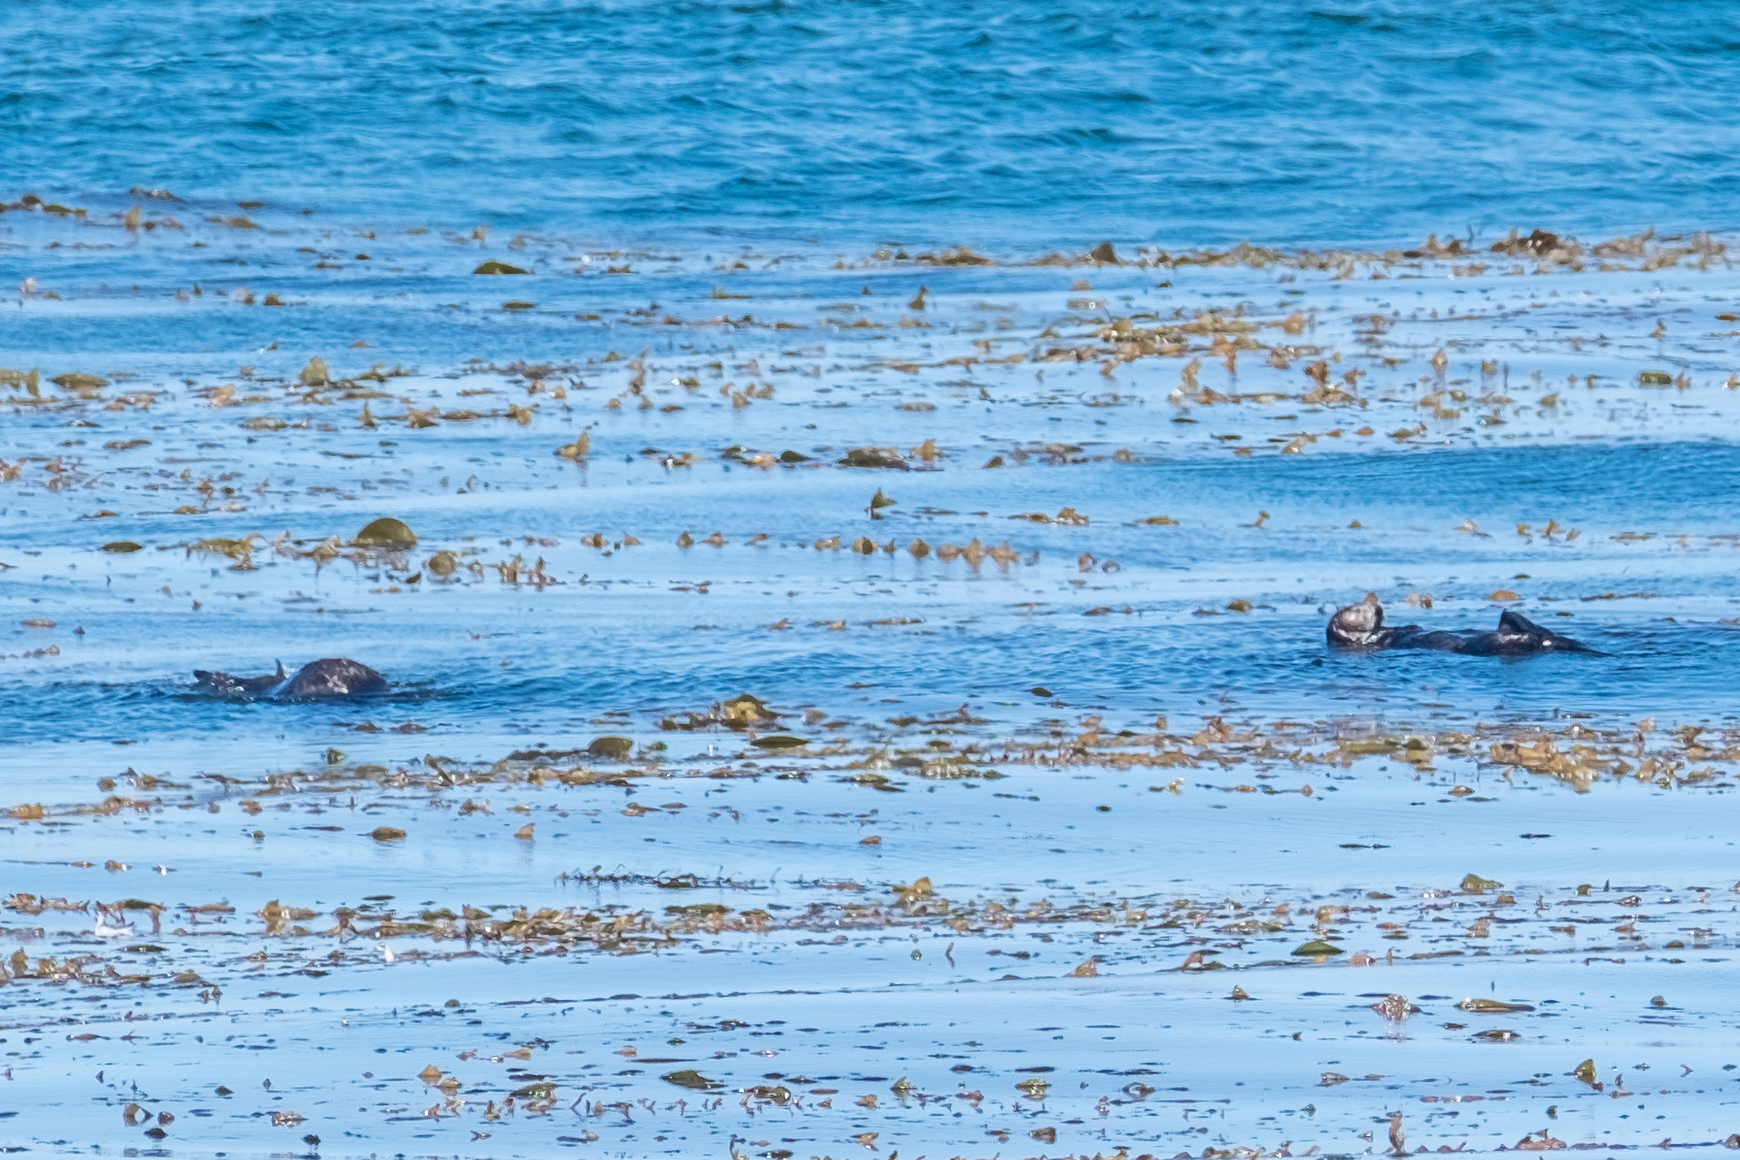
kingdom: Animalia
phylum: Chordata
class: Mammalia
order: Carnivora
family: Mustelidae
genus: Enhydra
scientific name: Enhydra lutris
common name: Sea otter
